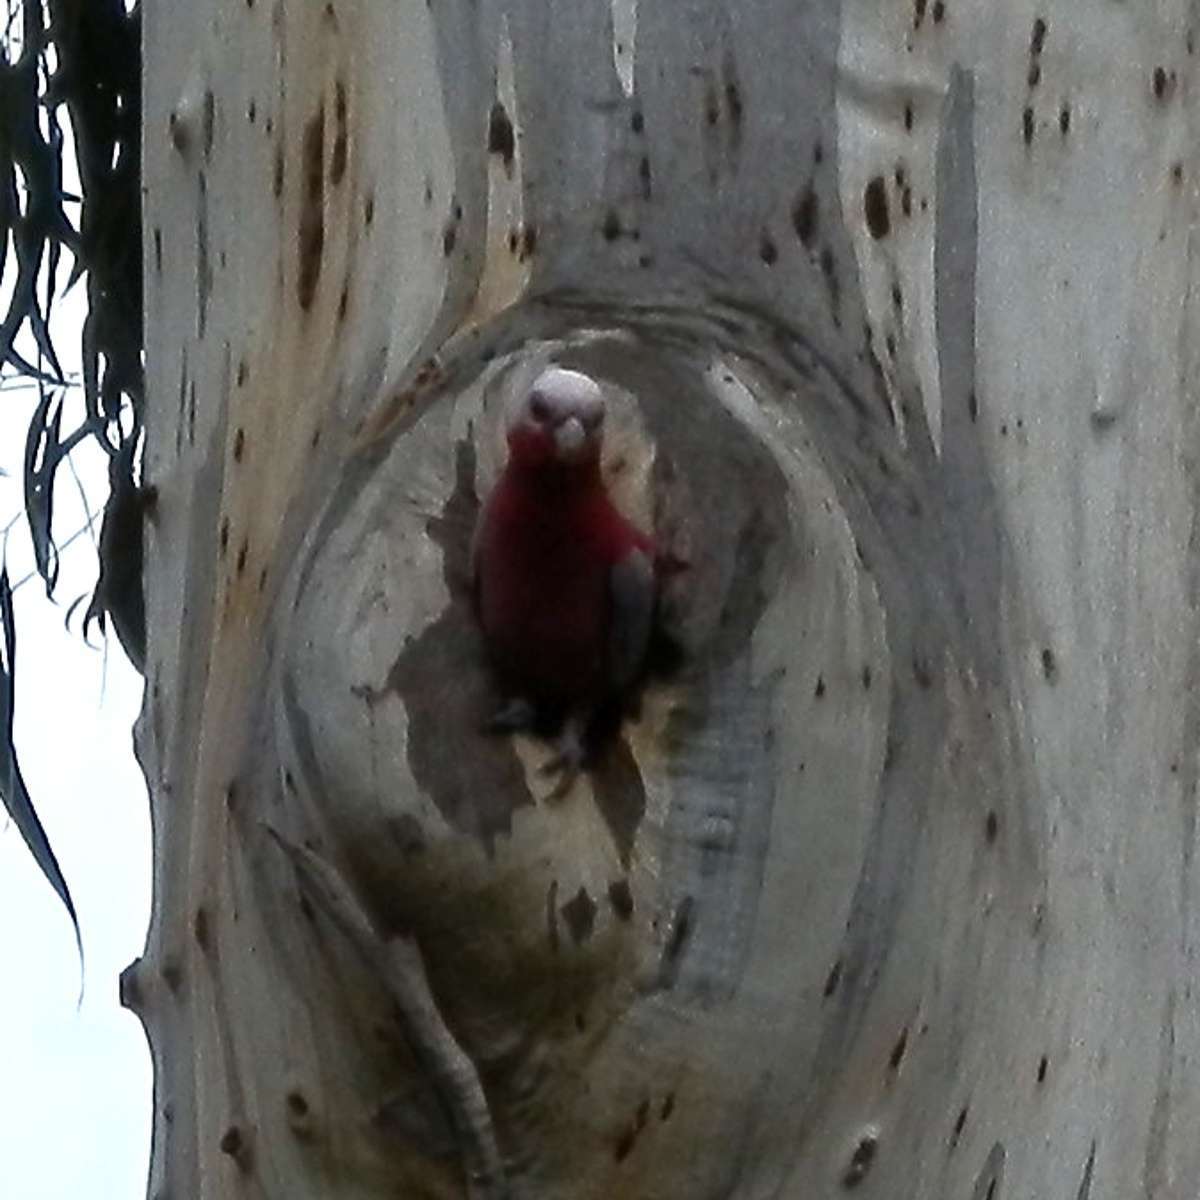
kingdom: Animalia
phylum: Chordata
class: Aves
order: Psittaciformes
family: Psittacidae
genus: Eolophus
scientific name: Eolophus roseicapilla
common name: Galah
